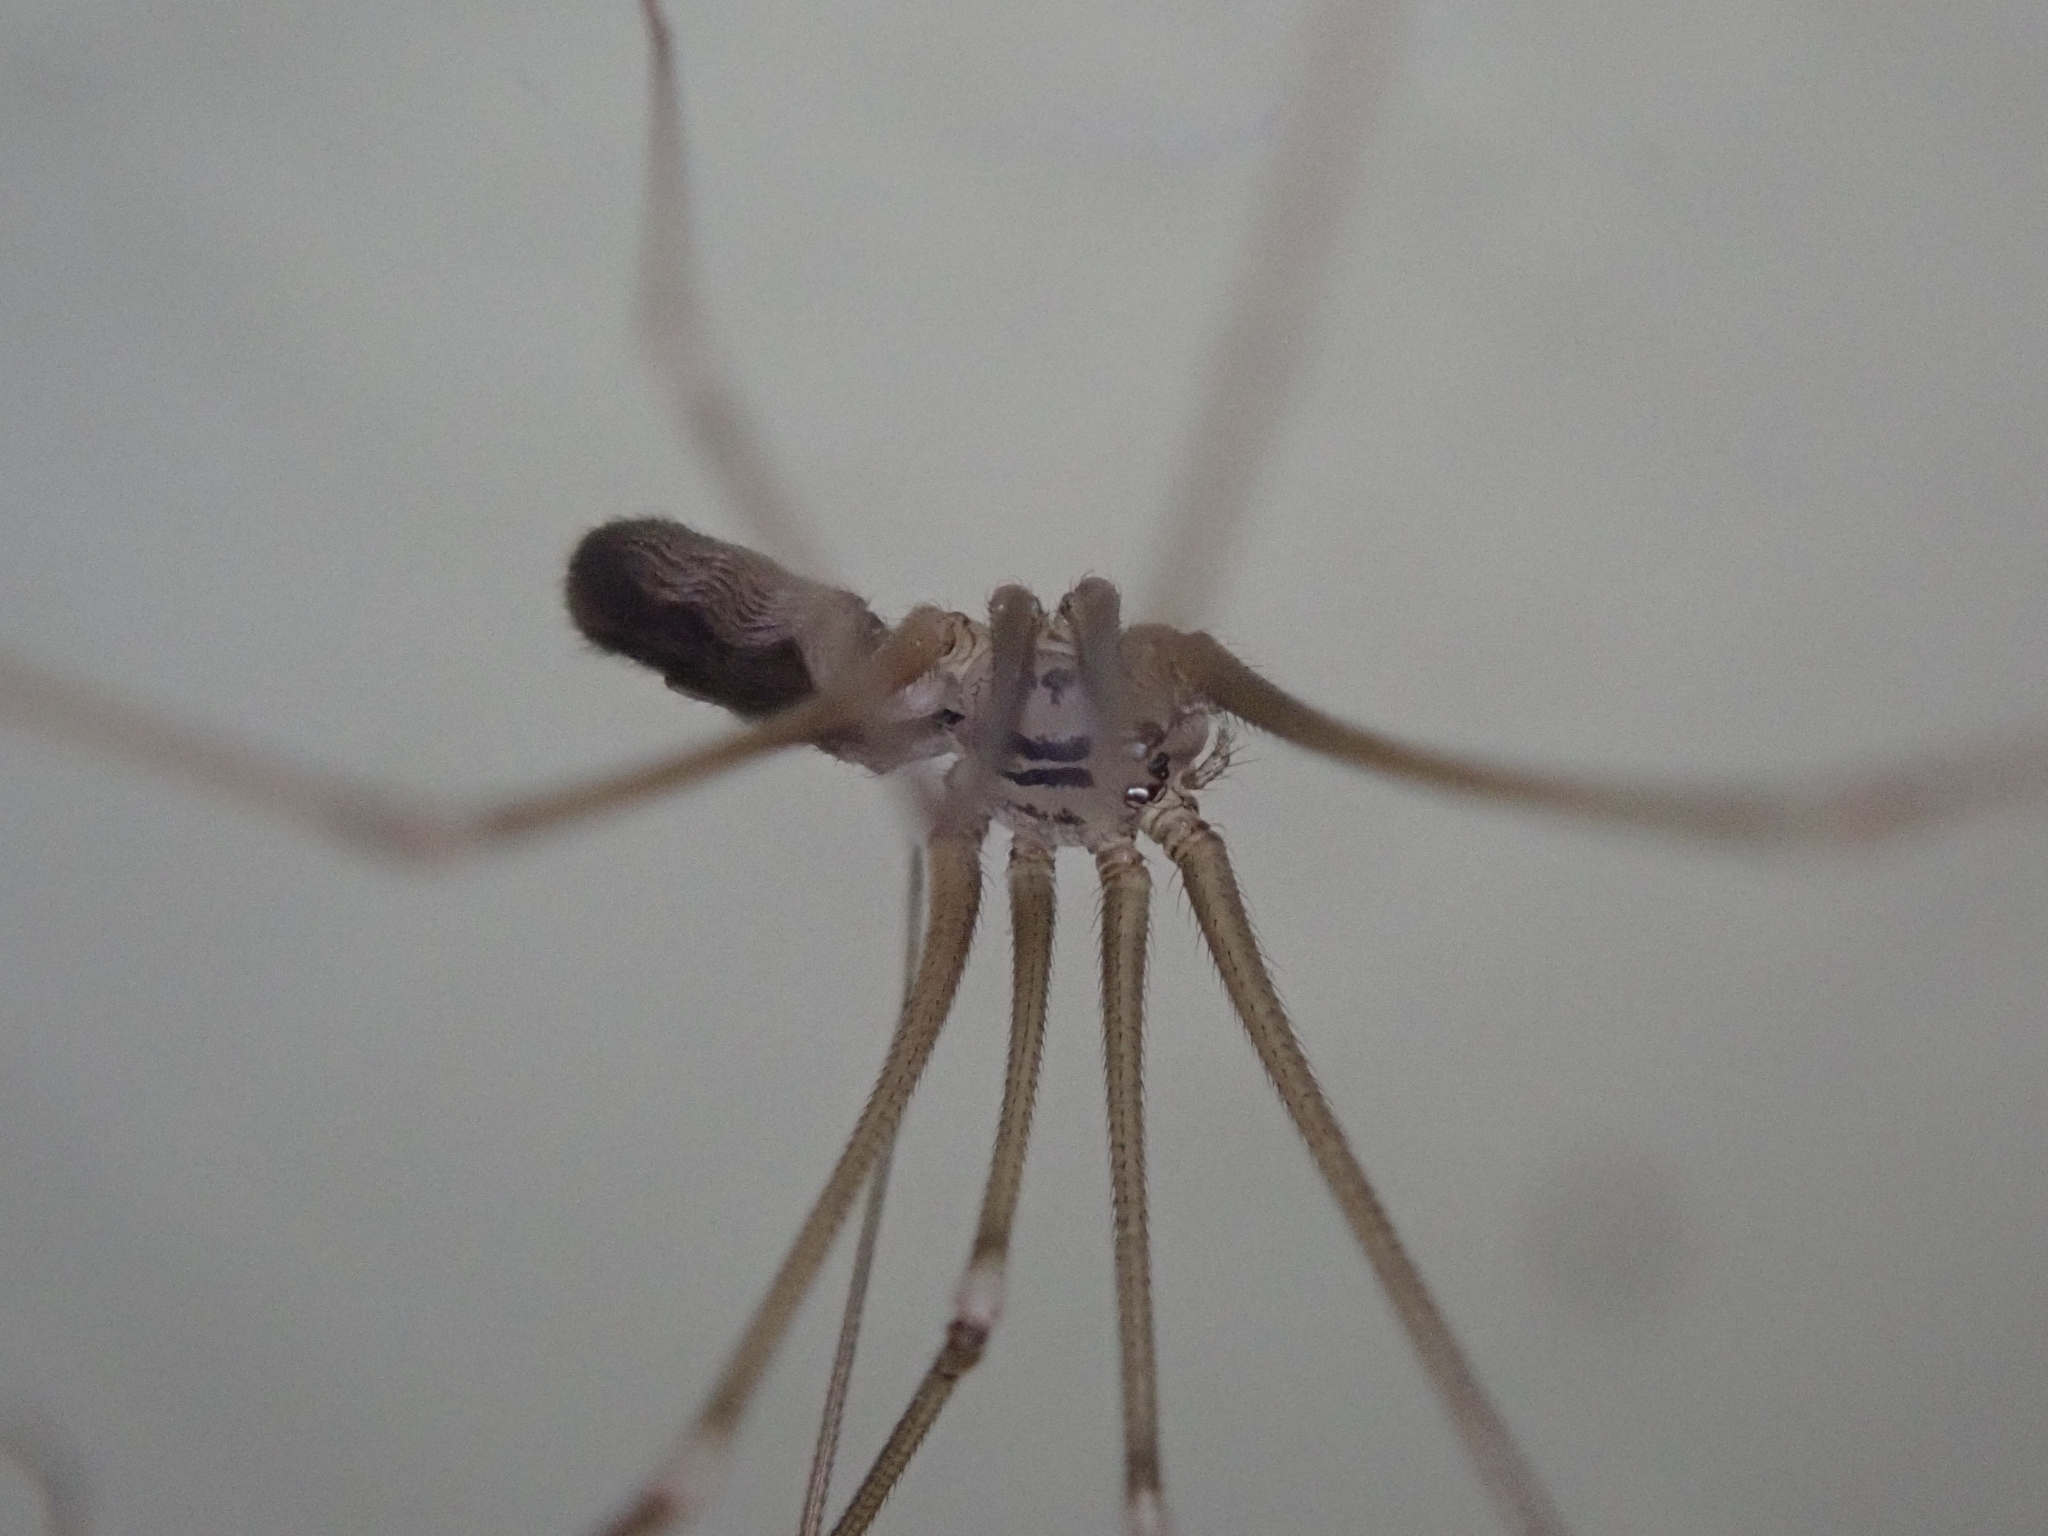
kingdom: Animalia
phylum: Arthropoda
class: Arachnida
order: Araneae
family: Pholcidae
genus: Pholcus
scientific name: Pholcus opilionoides
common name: Daddylongleg spider
